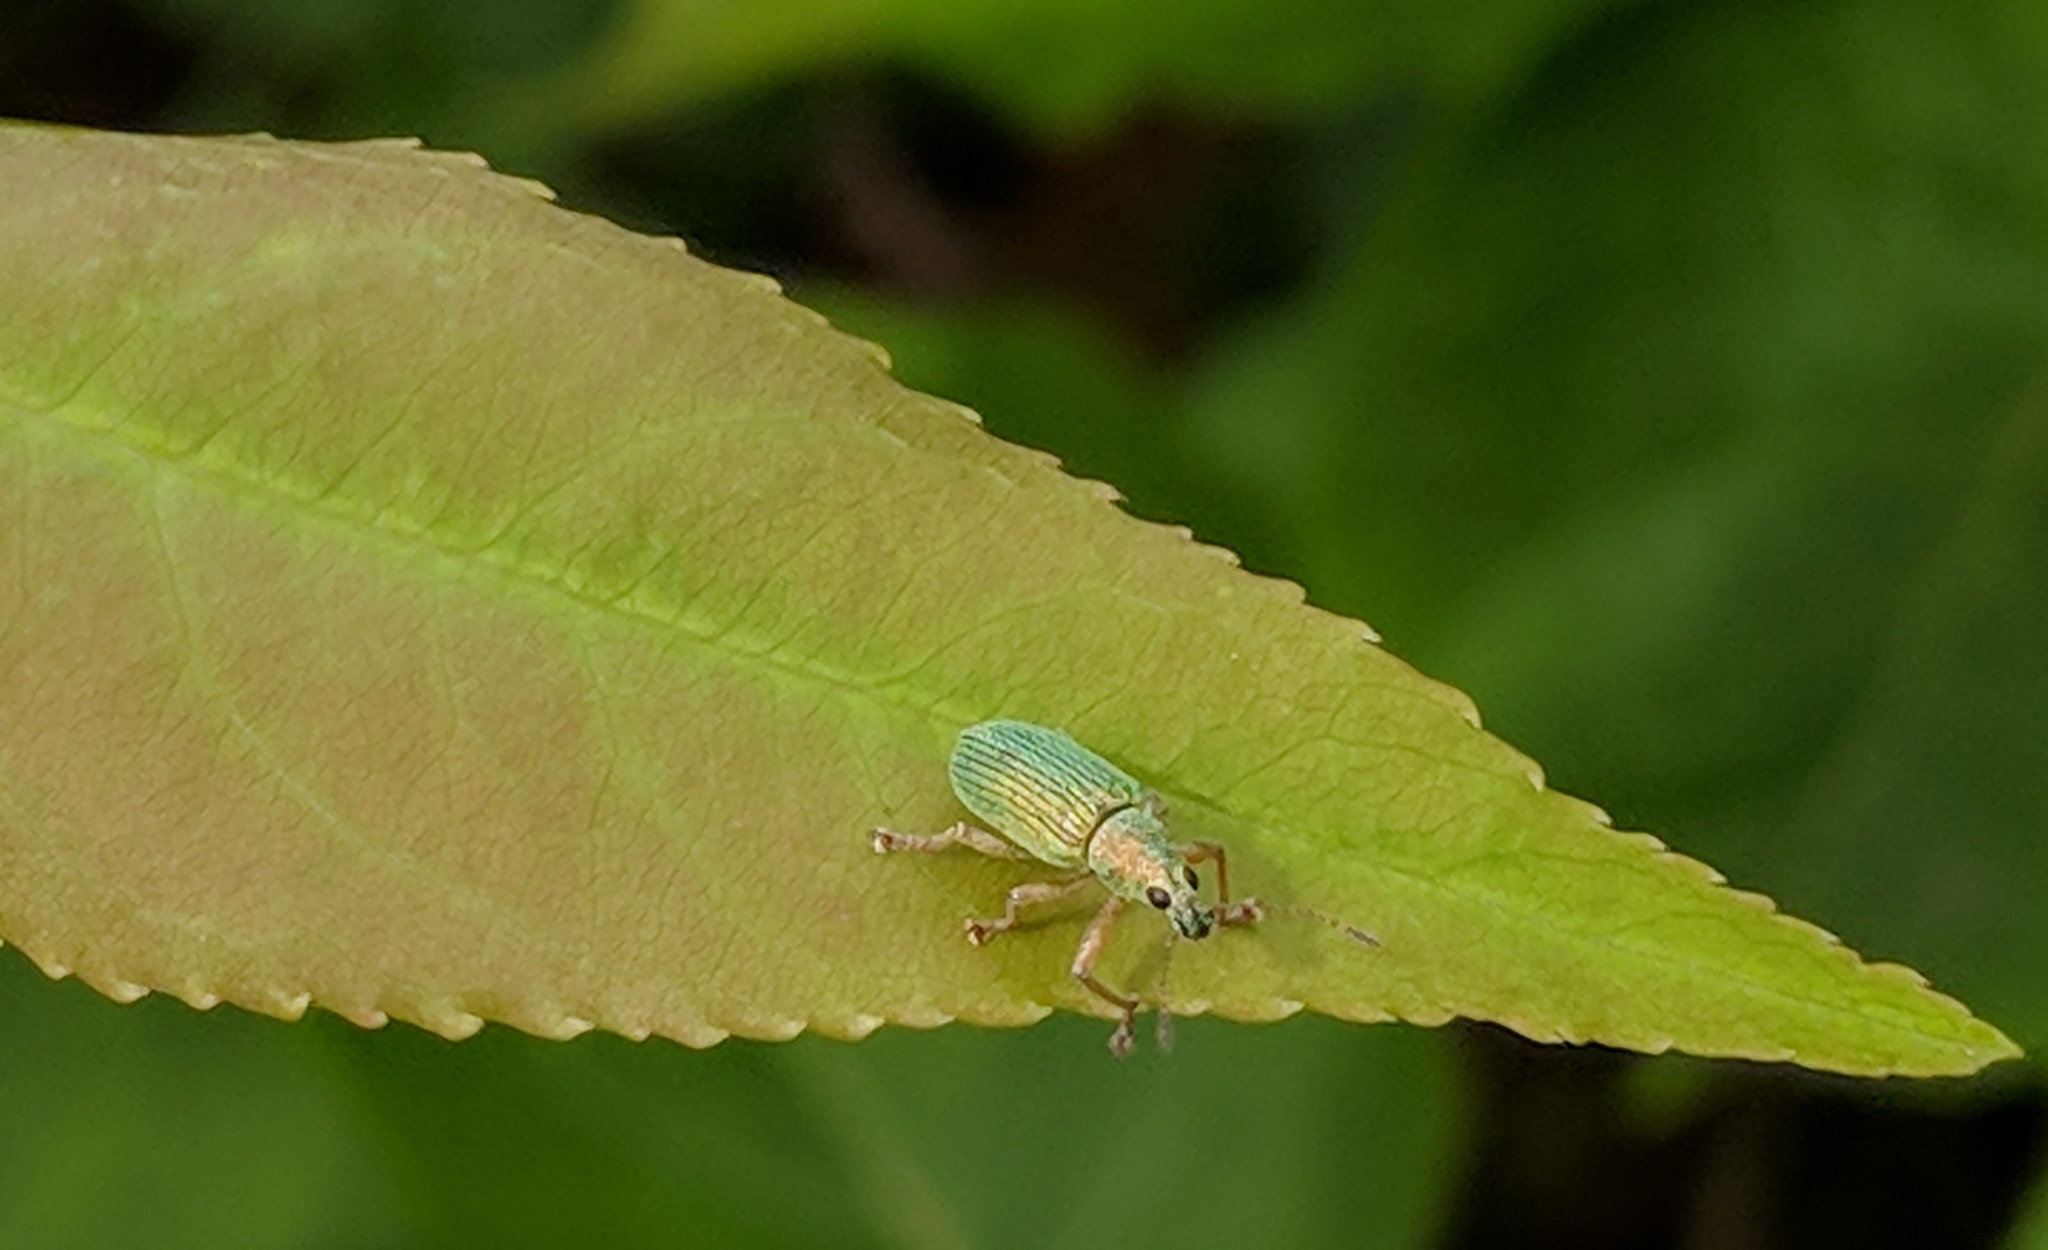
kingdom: Animalia
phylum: Arthropoda
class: Insecta
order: Coleoptera
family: Curculionidae
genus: Polydrusus
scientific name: Polydrusus formosus
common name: Weevil
